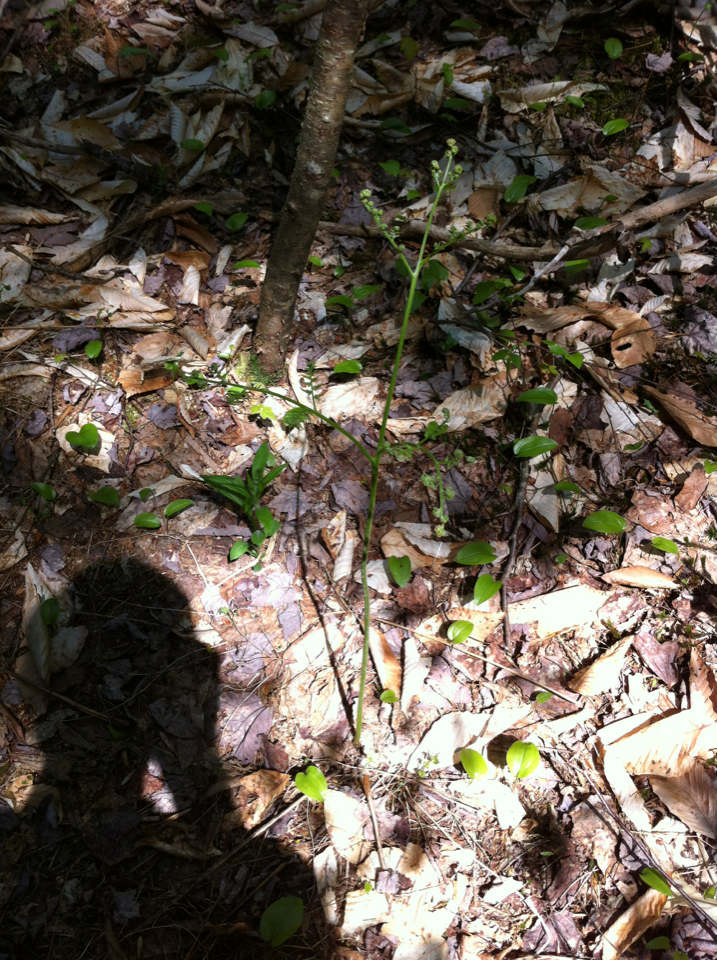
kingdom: Plantae
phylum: Tracheophyta
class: Polypodiopsida
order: Polypodiales
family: Dennstaedtiaceae
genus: Pteridium
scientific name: Pteridium aquilinum
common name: Bracken
